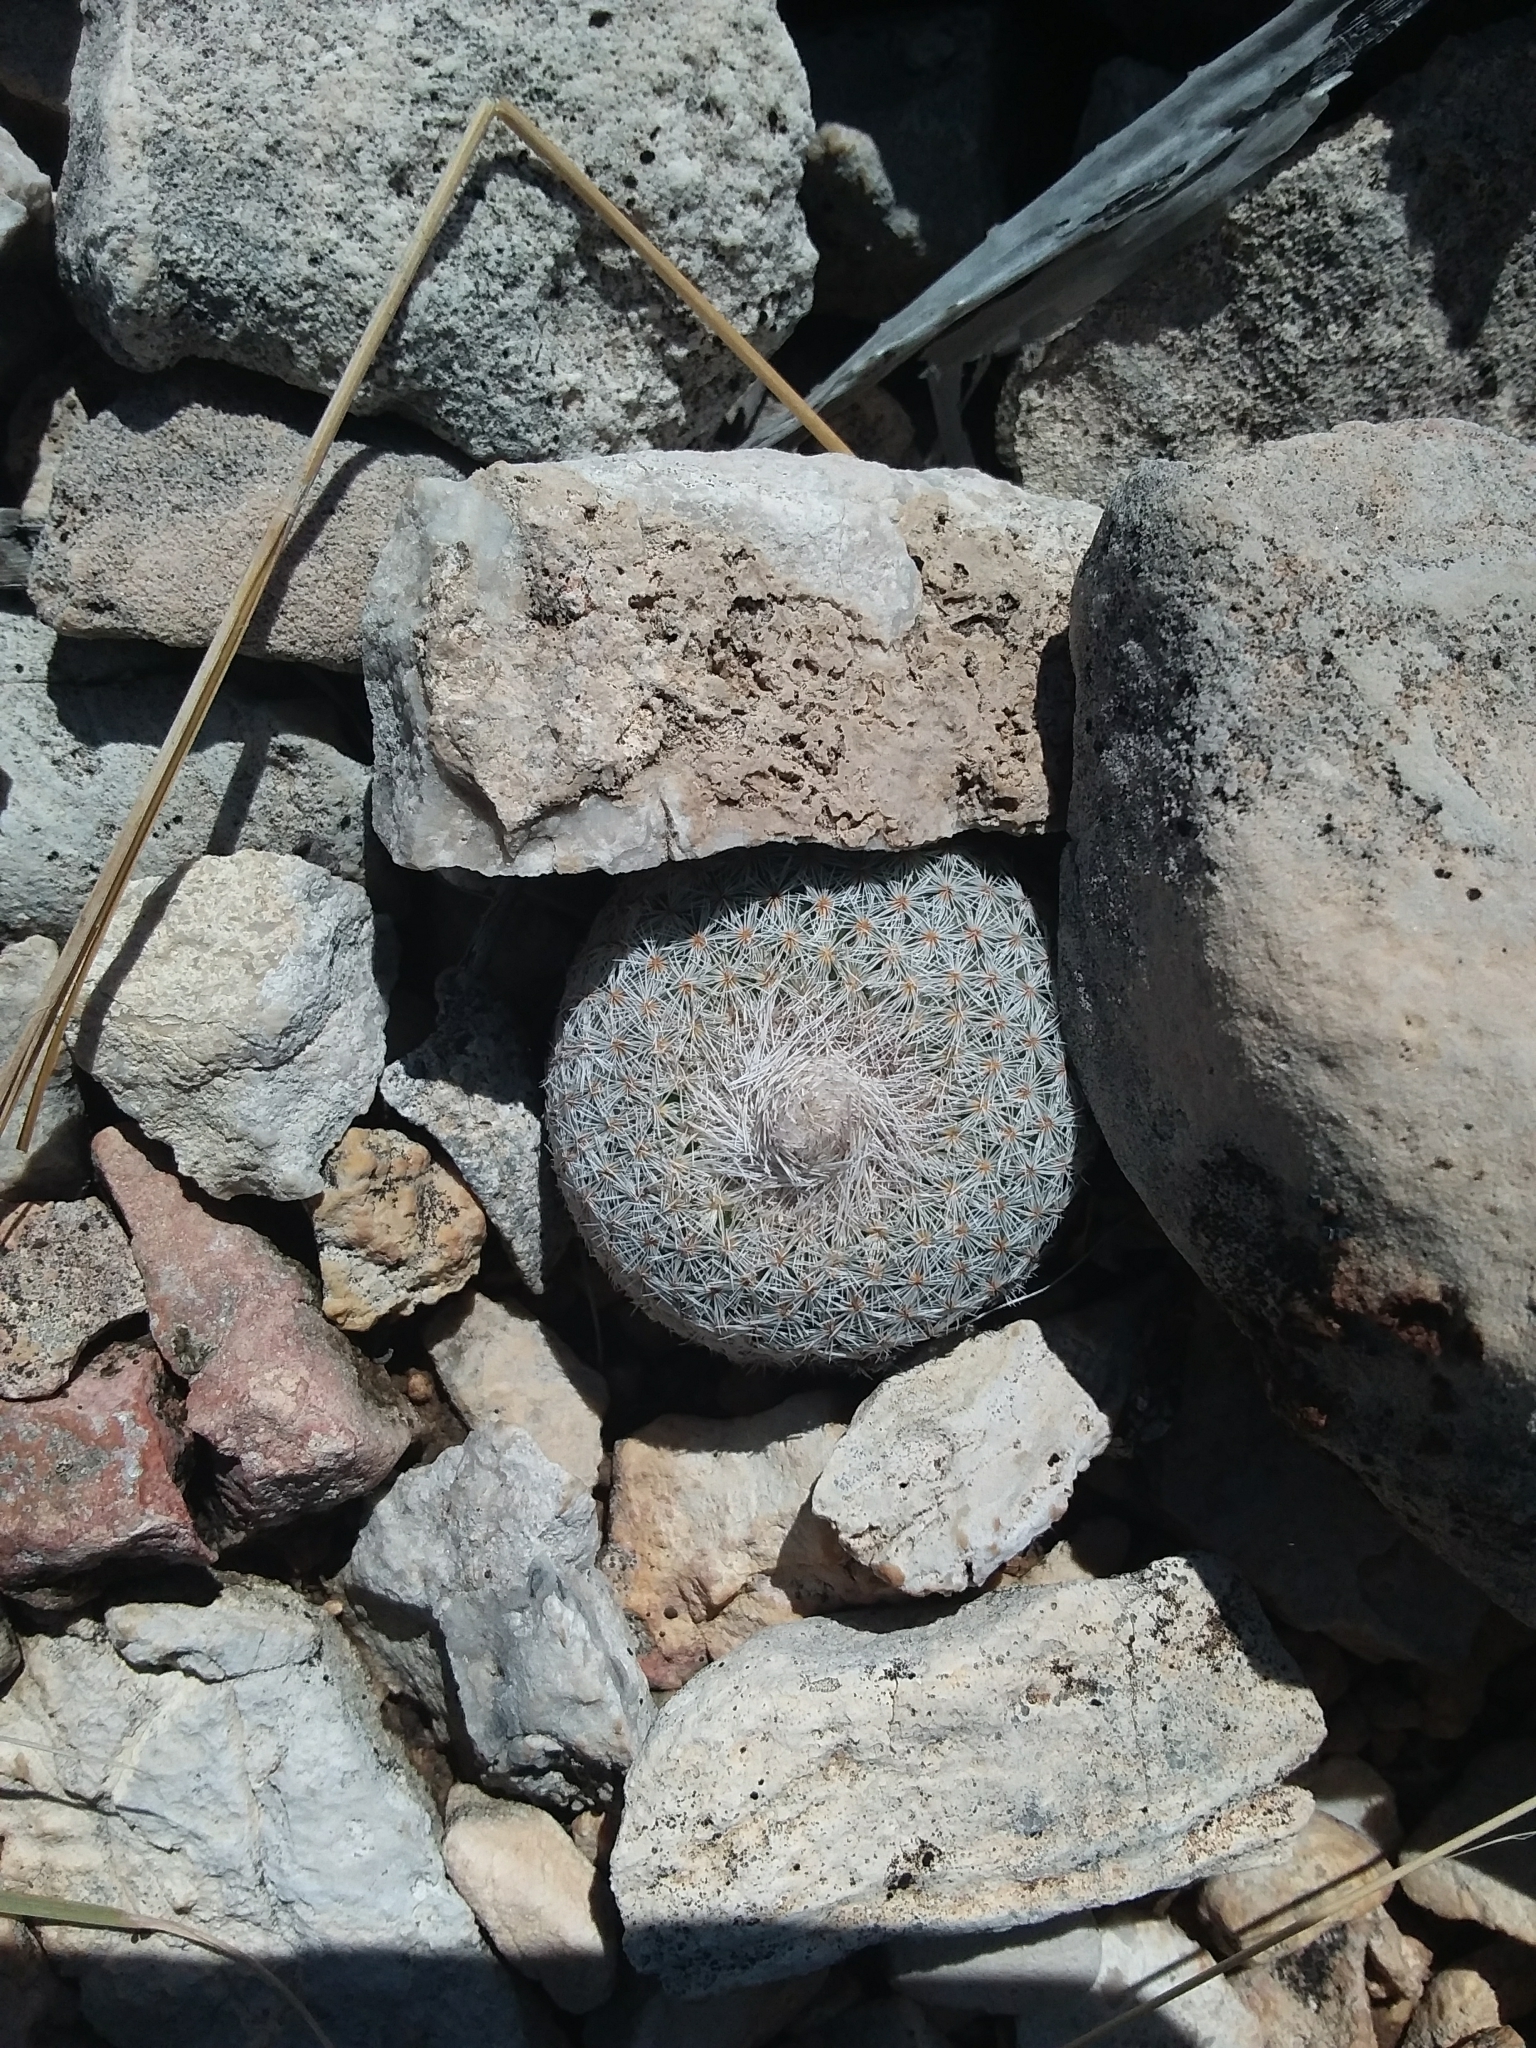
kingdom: Plantae
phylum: Tracheophyta
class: Magnoliopsida
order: Caryophyllales
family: Cactaceae
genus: Epithelantha
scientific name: Epithelantha micromeris
